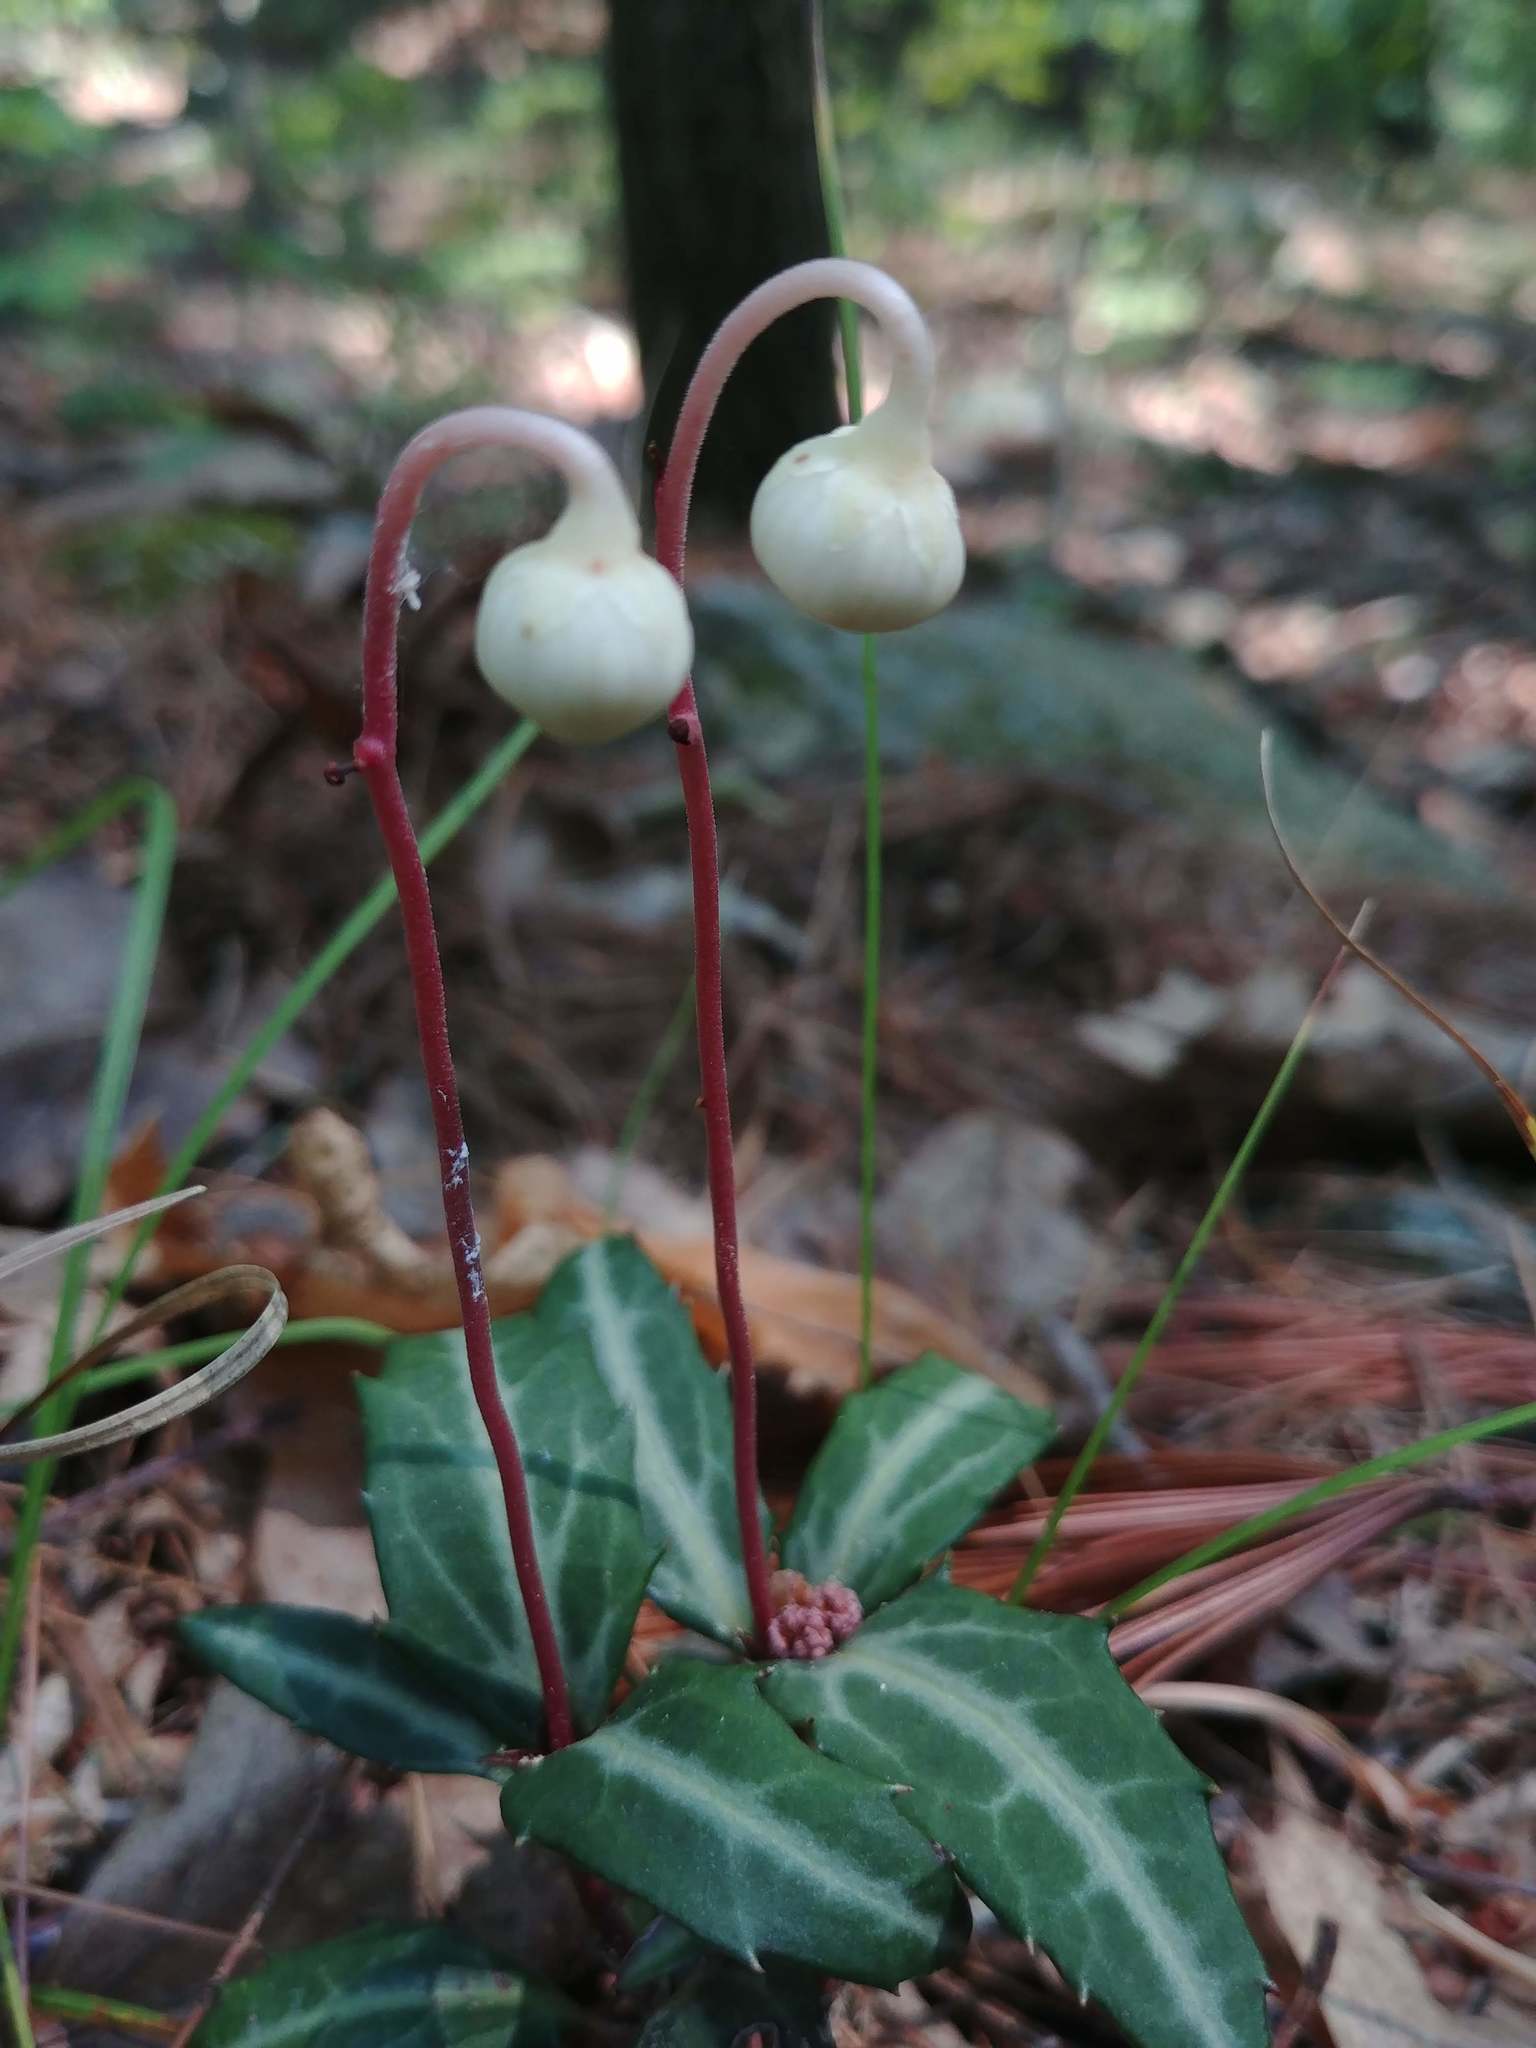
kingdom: Plantae
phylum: Tracheophyta
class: Magnoliopsida
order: Ericales
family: Ericaceae
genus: Chimaphila
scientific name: Chimaphila maculata
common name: Spotted pipsissewa
